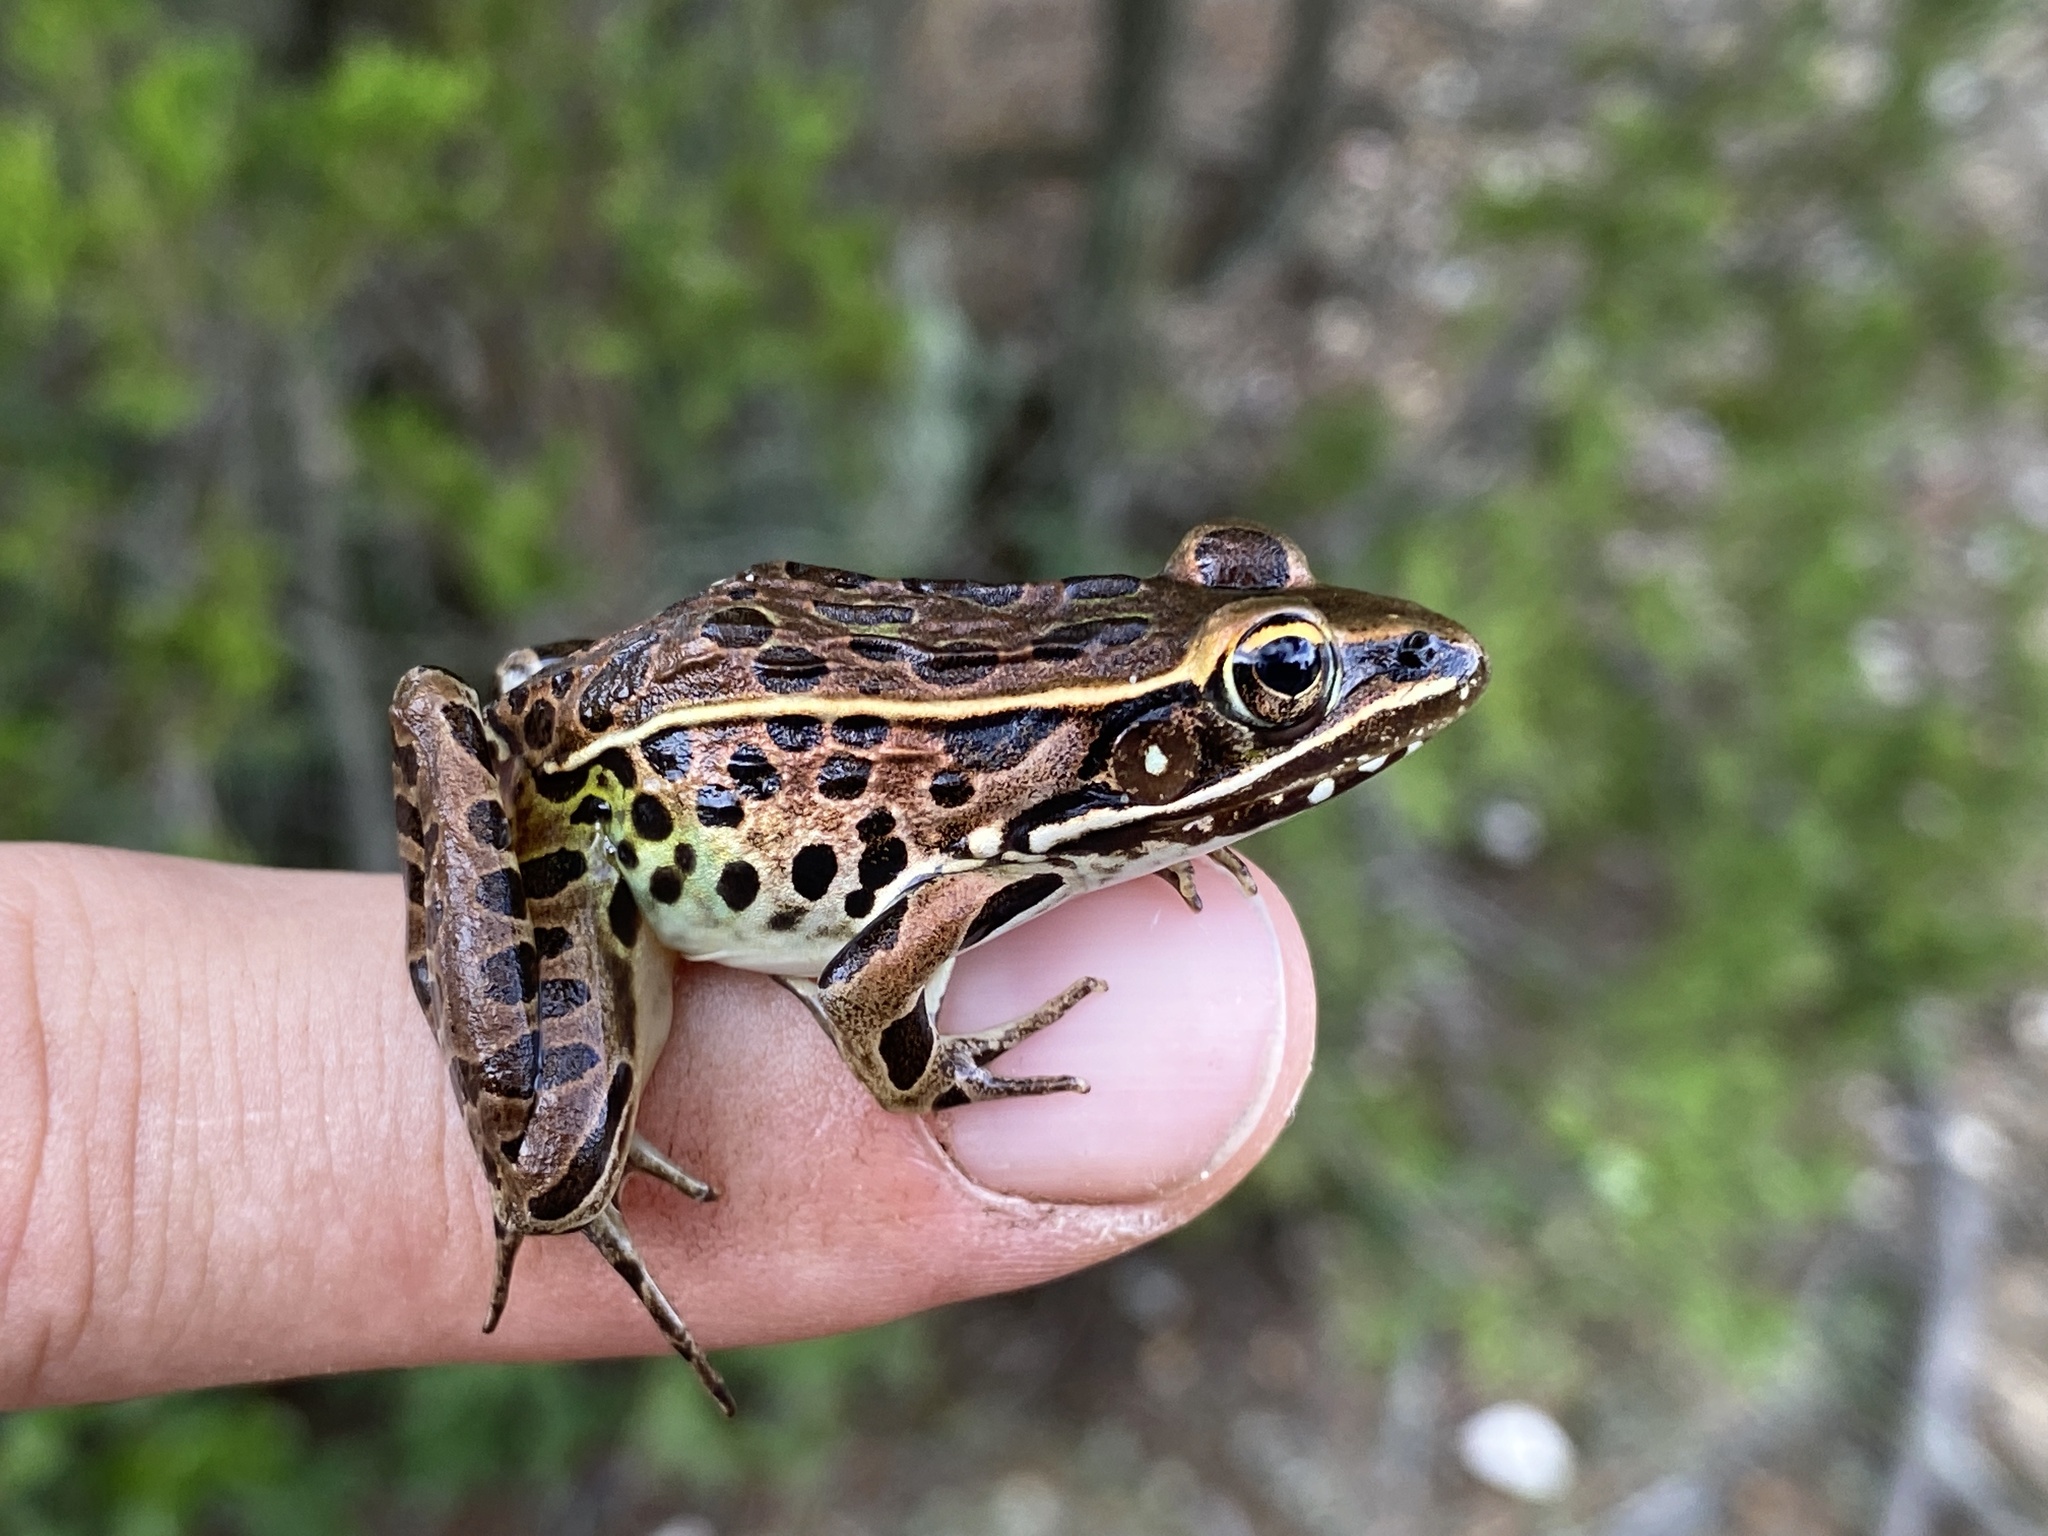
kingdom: Animalia
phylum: Chordata
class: Amphibia
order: Anura
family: Ranidae
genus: Lithobates
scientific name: Lithobates sphenocephalus
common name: Southern leopard frog
